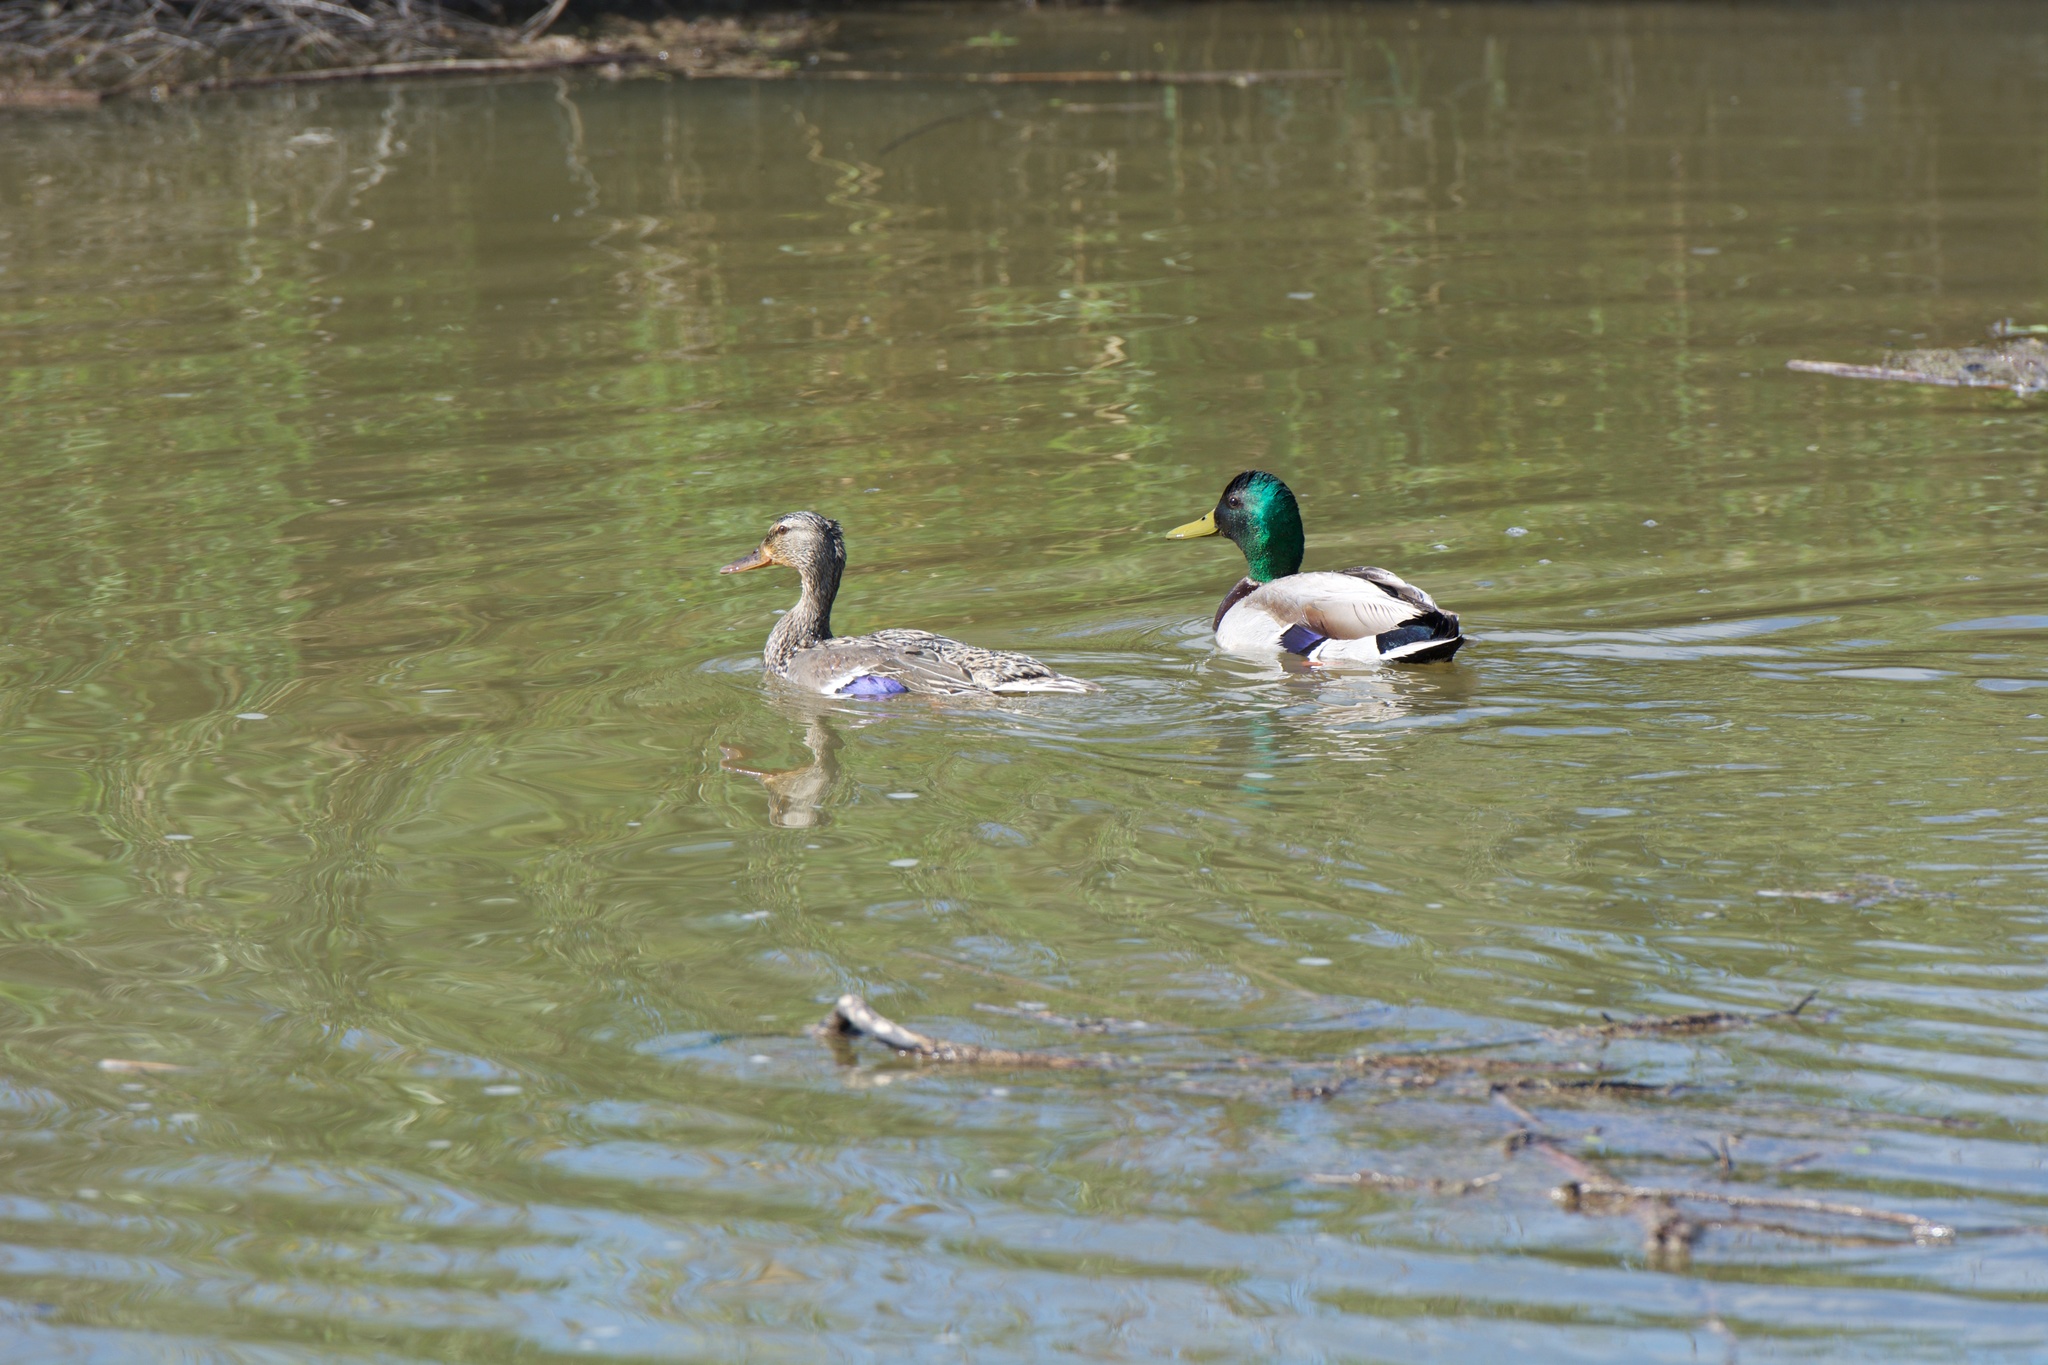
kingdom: Animalia
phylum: Chordata
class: Aves
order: Anseriformes
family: Anatidae
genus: Anas
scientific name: Anas platyrhynchos
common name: Mallard
